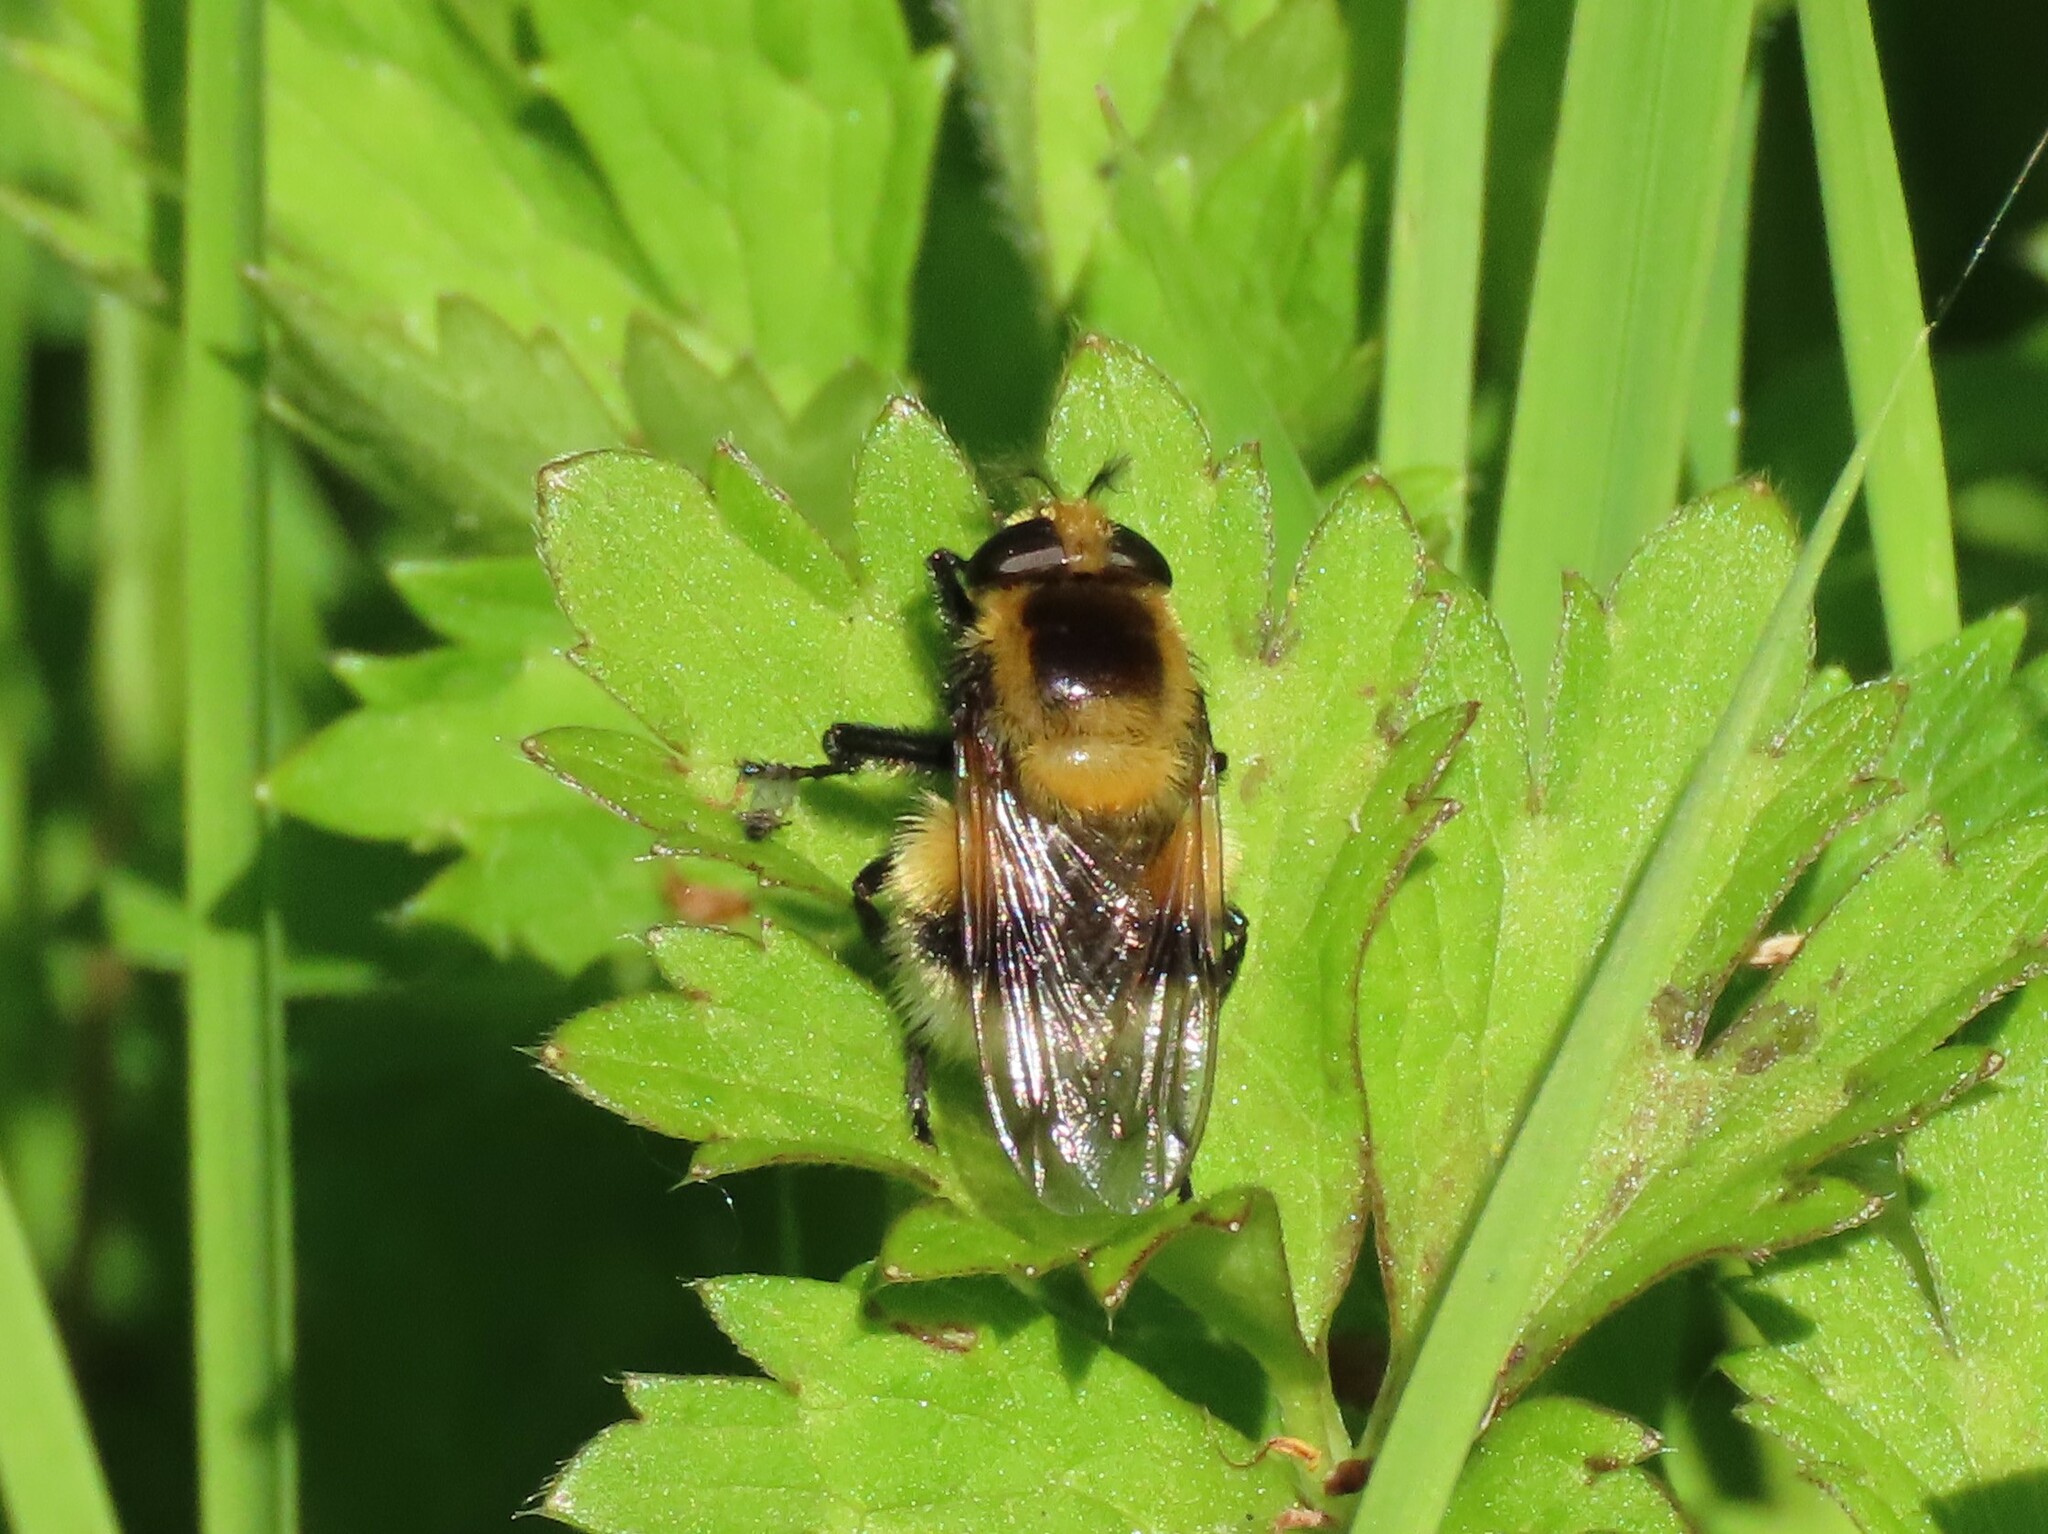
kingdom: Animalia
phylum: Arthropoda
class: Insecta
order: Diptera
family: Syrphidae
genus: Volucella
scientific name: Volucella bombylans
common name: Bumble bee hover fly
